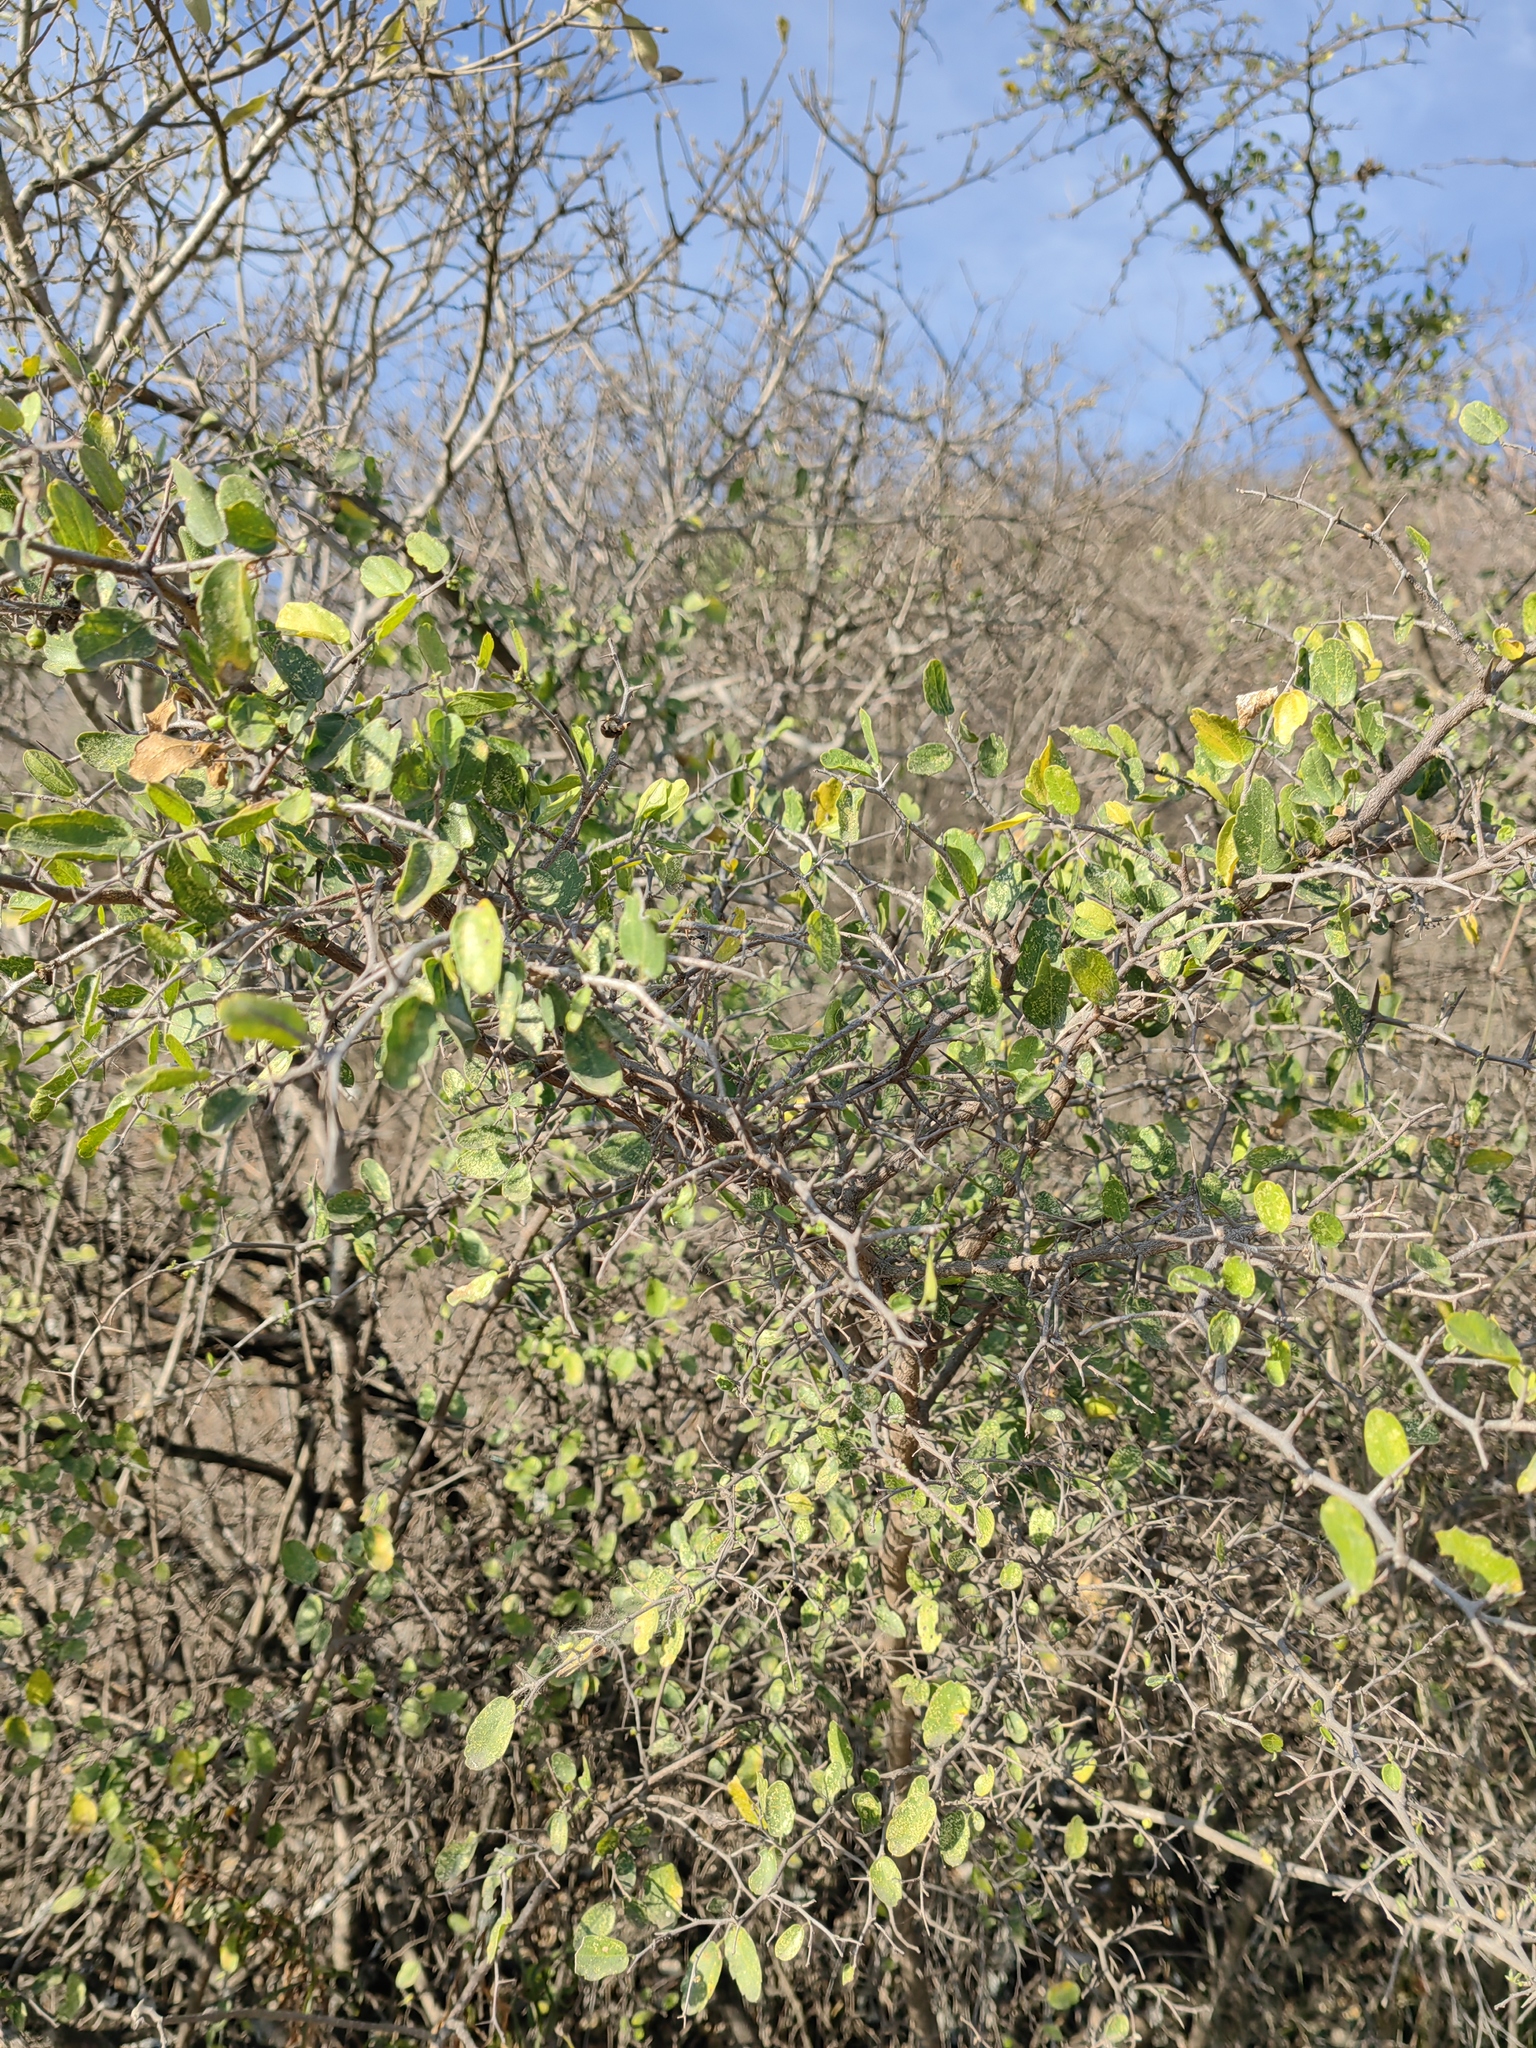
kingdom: Plantae
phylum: Tracheophyta
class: Magnoliopsida
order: Rosales
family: Cannabaceae
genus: Celtis
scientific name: Celtis pallida
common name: Desert hackberry
